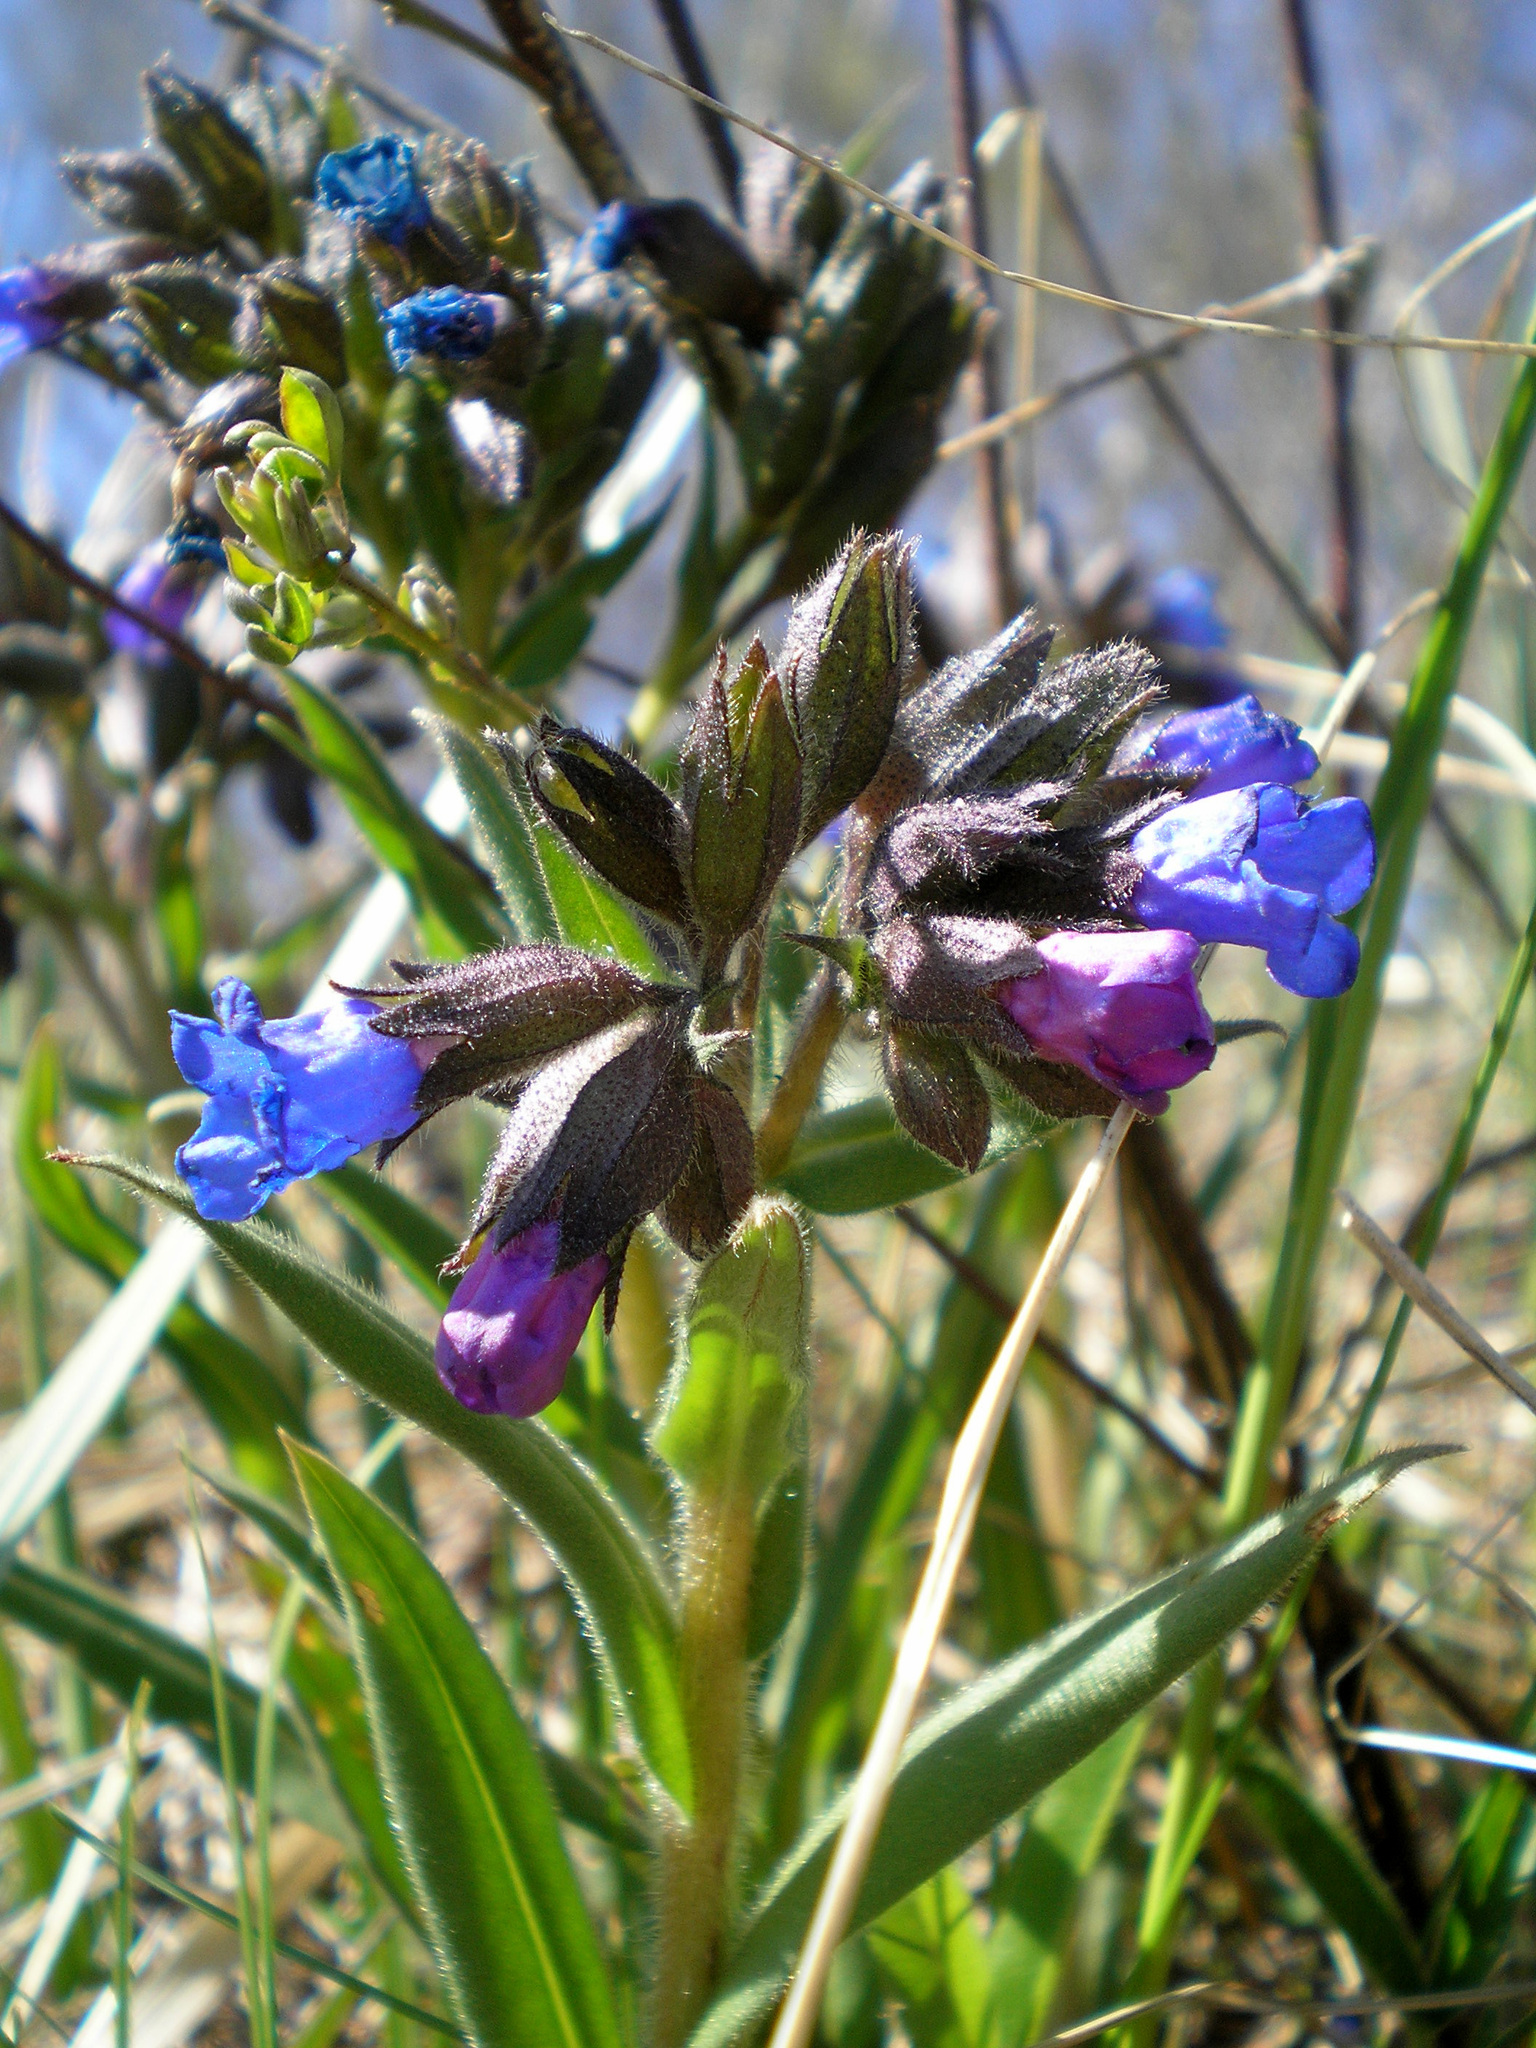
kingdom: Plantae
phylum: Tracheophyta
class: Magnoliopsida
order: Boraginales
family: Boraginaceae
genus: Pulmonaria
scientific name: Pulmonaria angustifolia
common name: Blue cowslip
